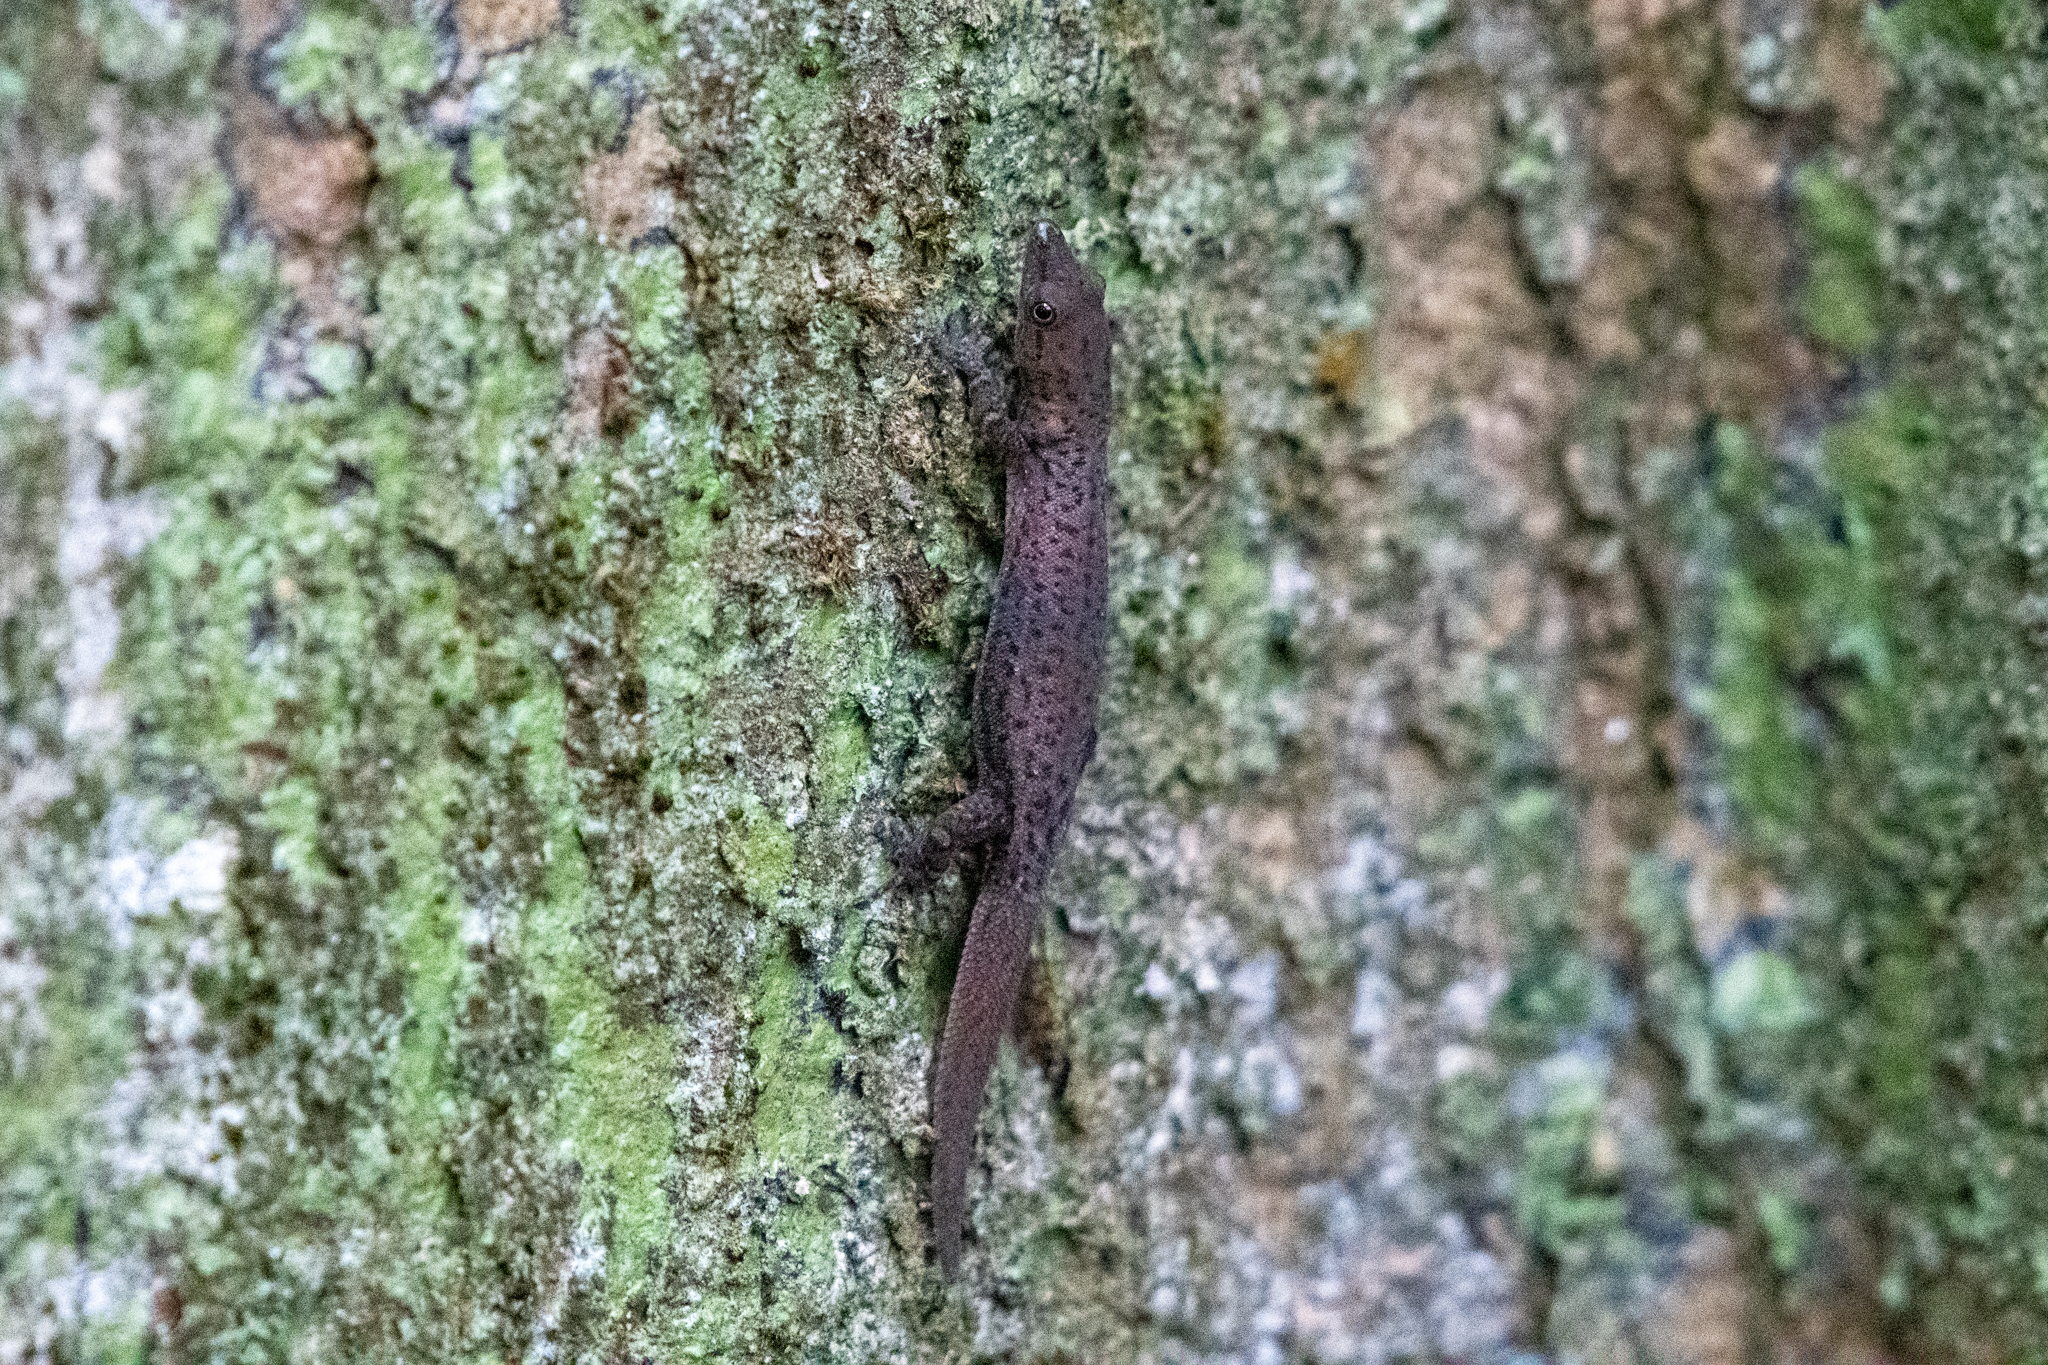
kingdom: Animalia
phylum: Chordata
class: Squamata
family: Sphaerodactylidae
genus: Sphaerodactylus
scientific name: Sphaerodactylus poindexteri
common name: Utila small-scaled geckolet
